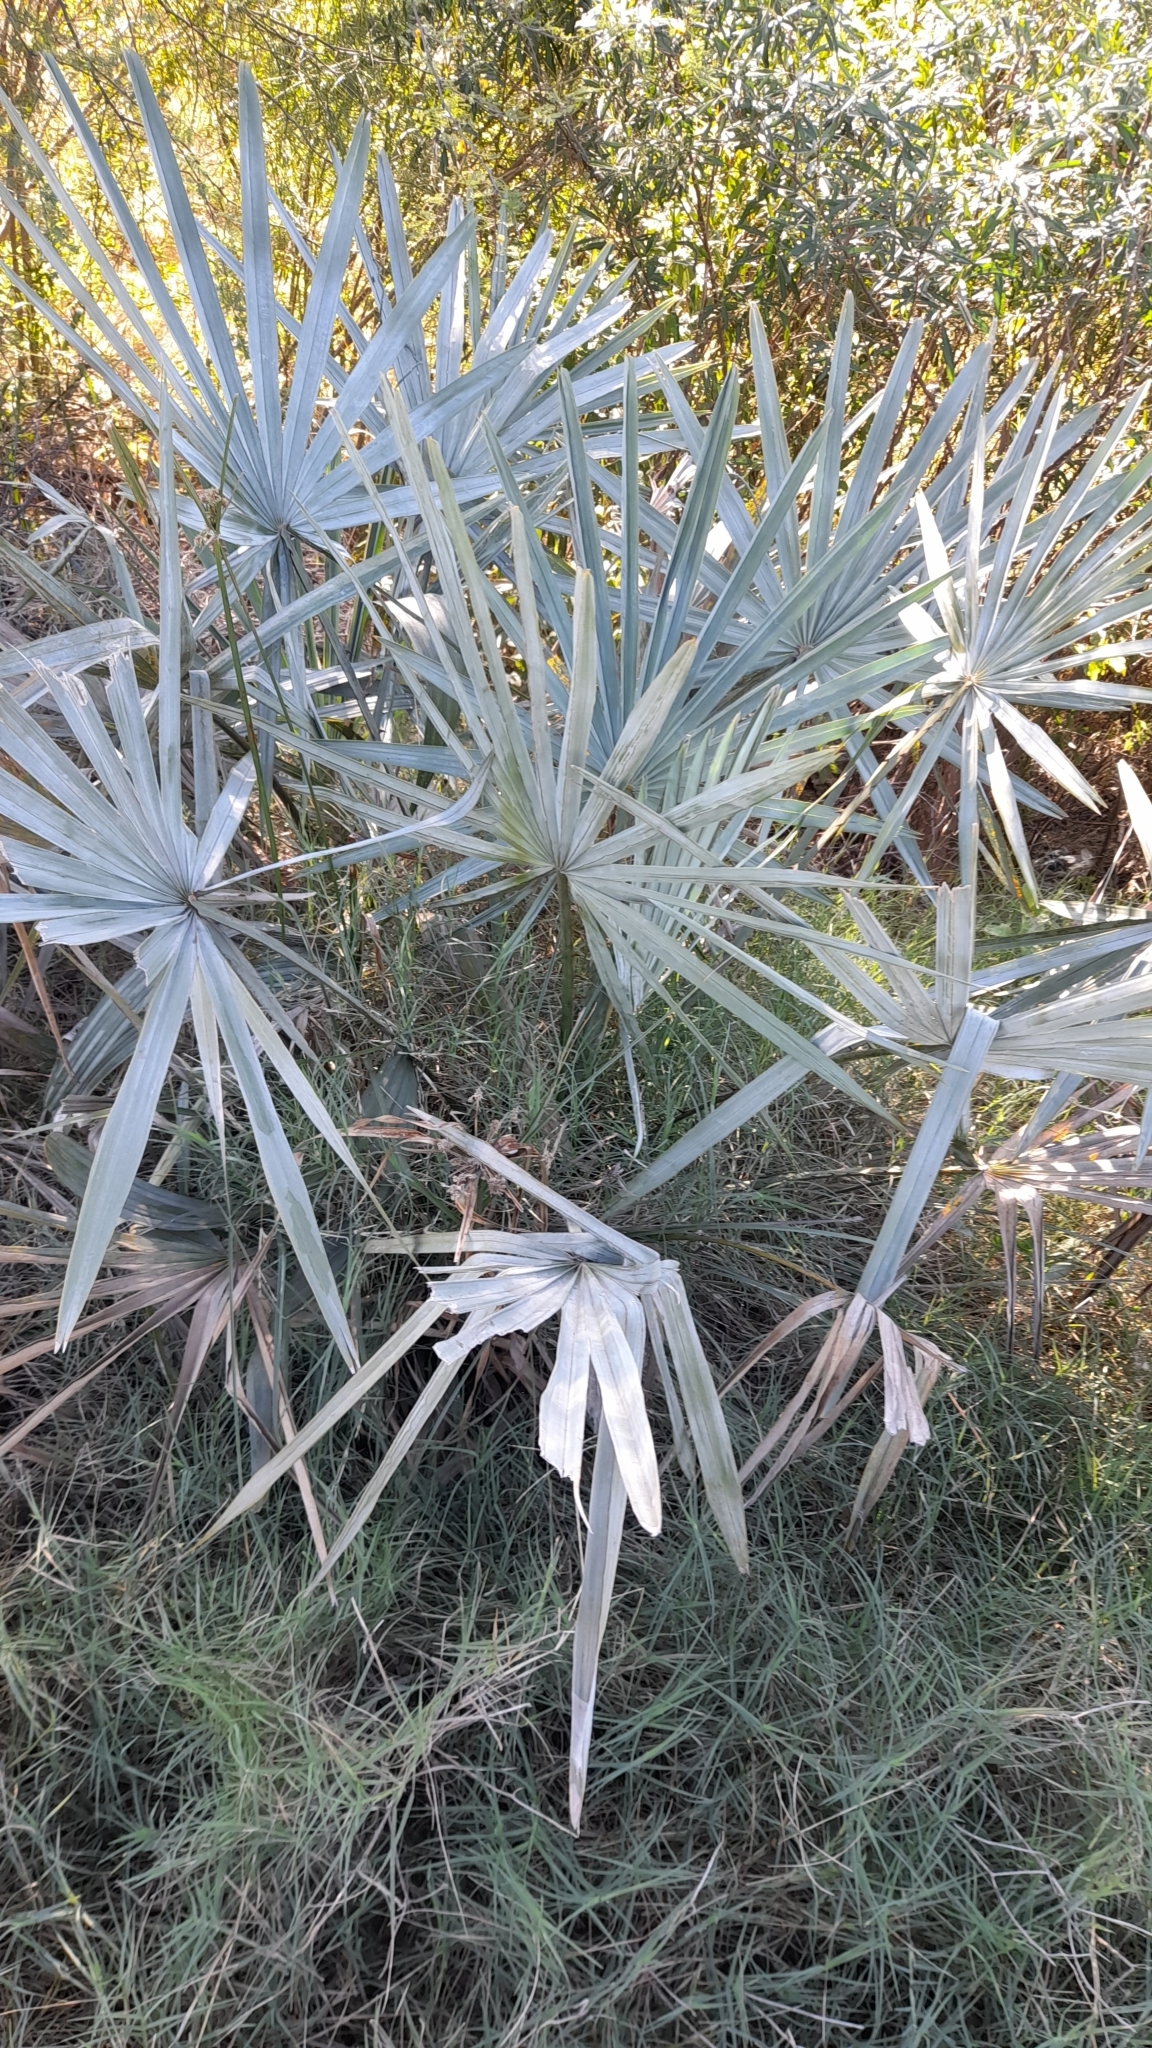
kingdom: Plantae
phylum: Tracheophyta
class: Liliopsida
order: Arecales
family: Arecaceae
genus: Copernicia
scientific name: Copernicia alba
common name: Caranday palm
